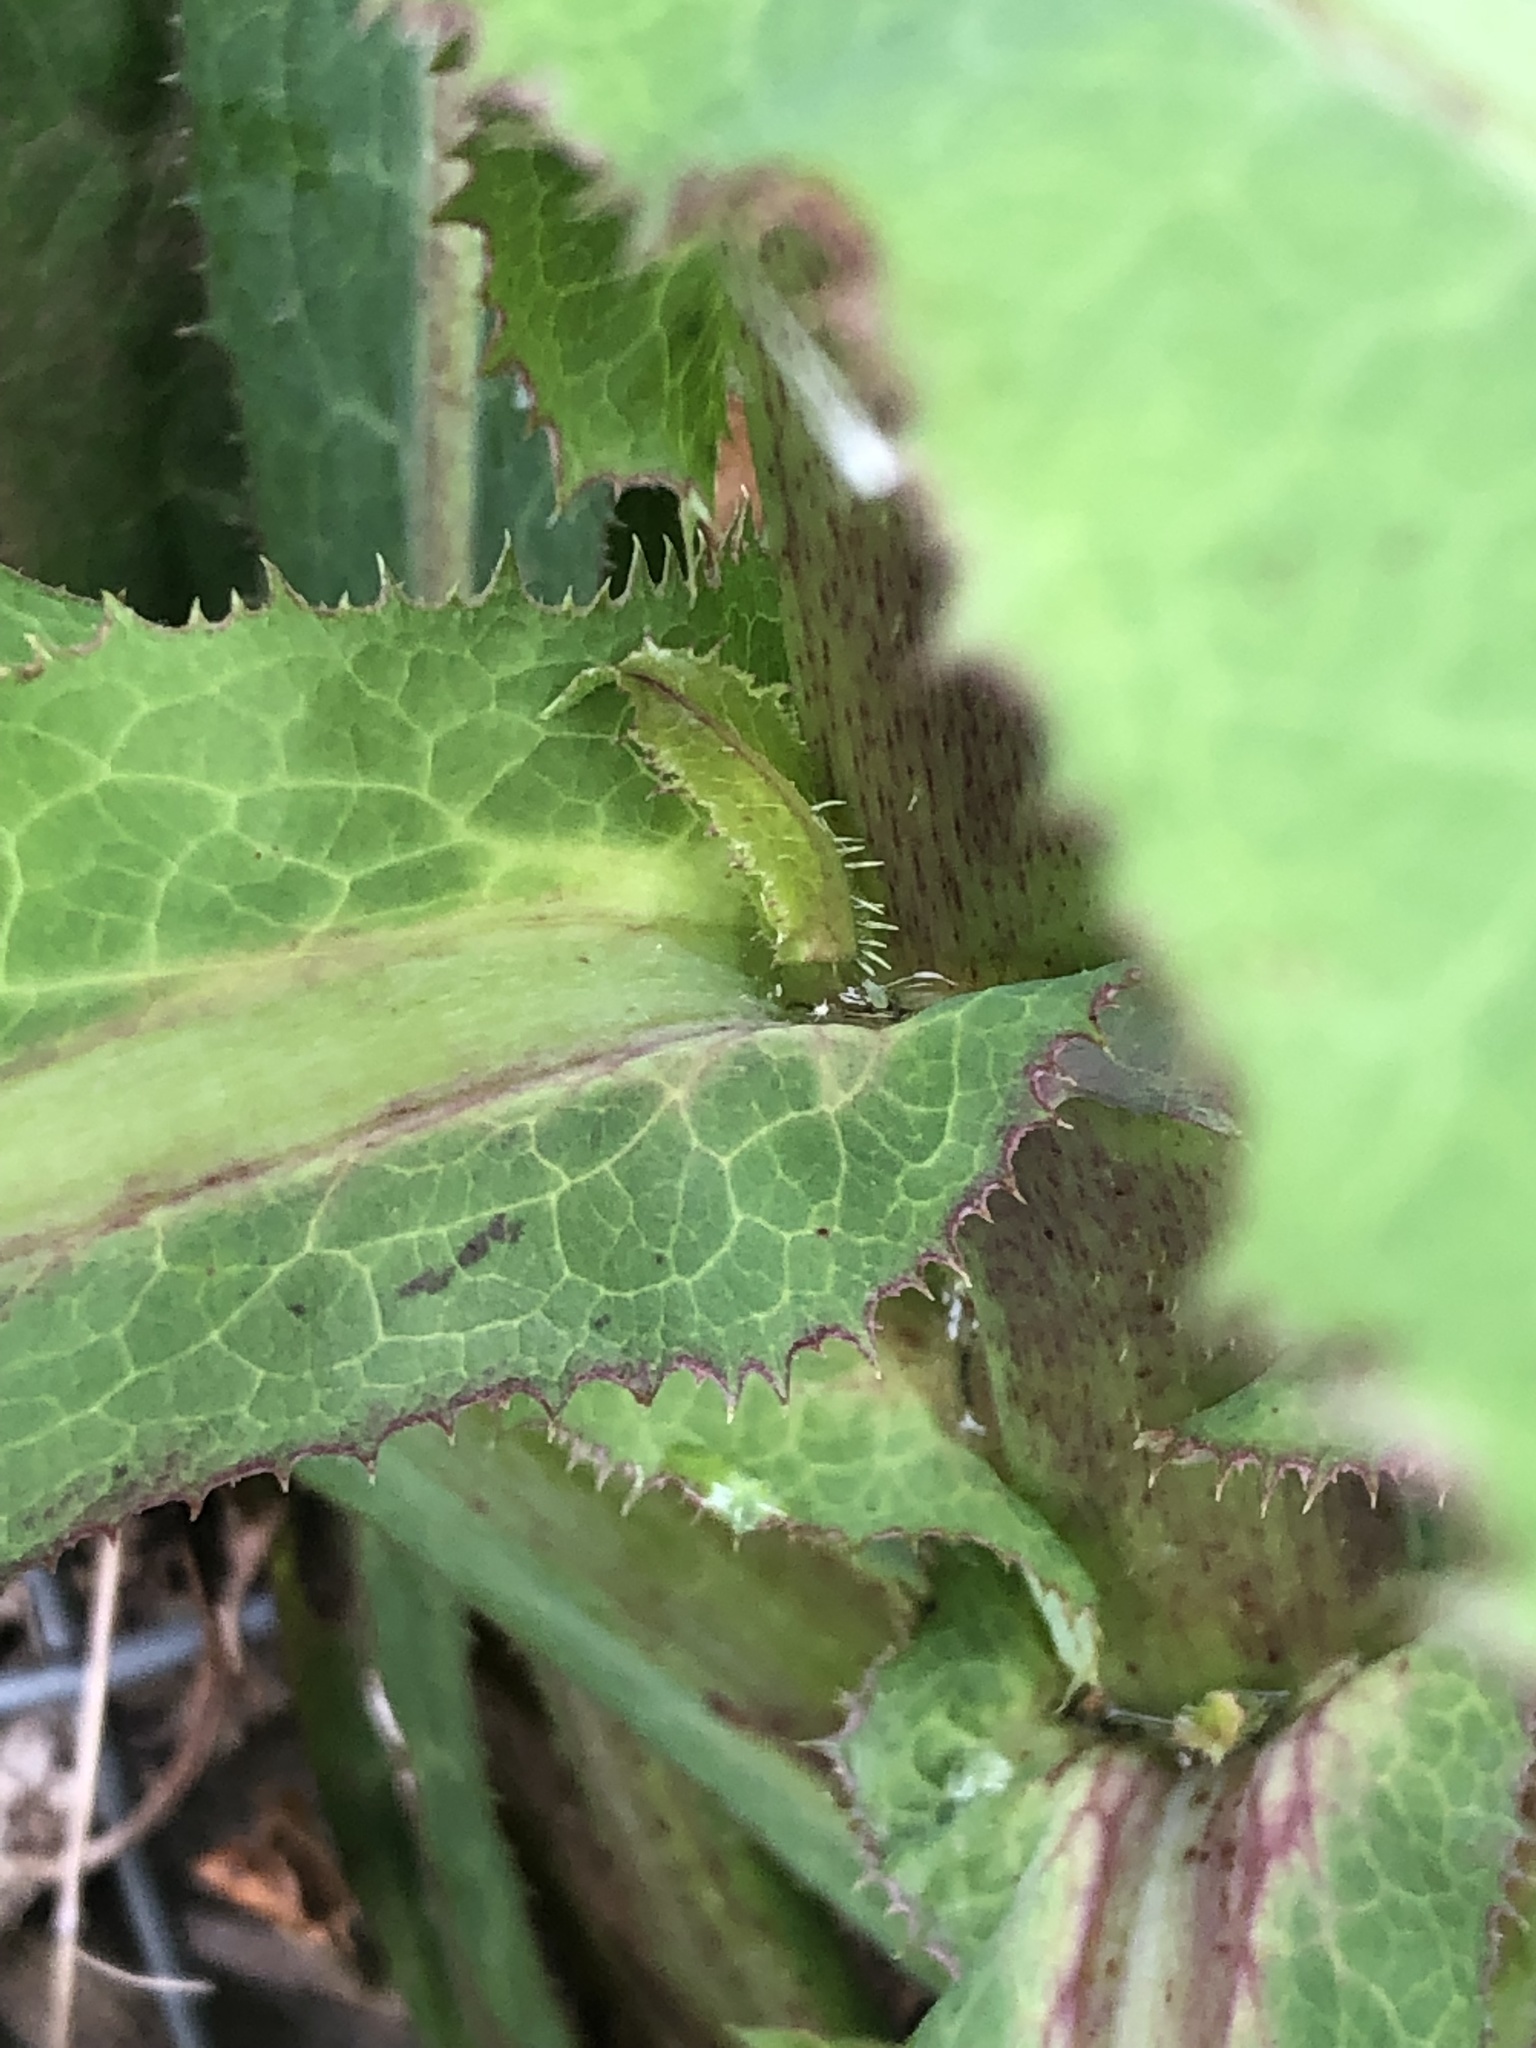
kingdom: Plantae
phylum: Tracheophyta
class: Magnoliopsida
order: Asterales
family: Asteraceae
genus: Lactuca
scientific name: Lactuca virosa
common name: Great lettuce
